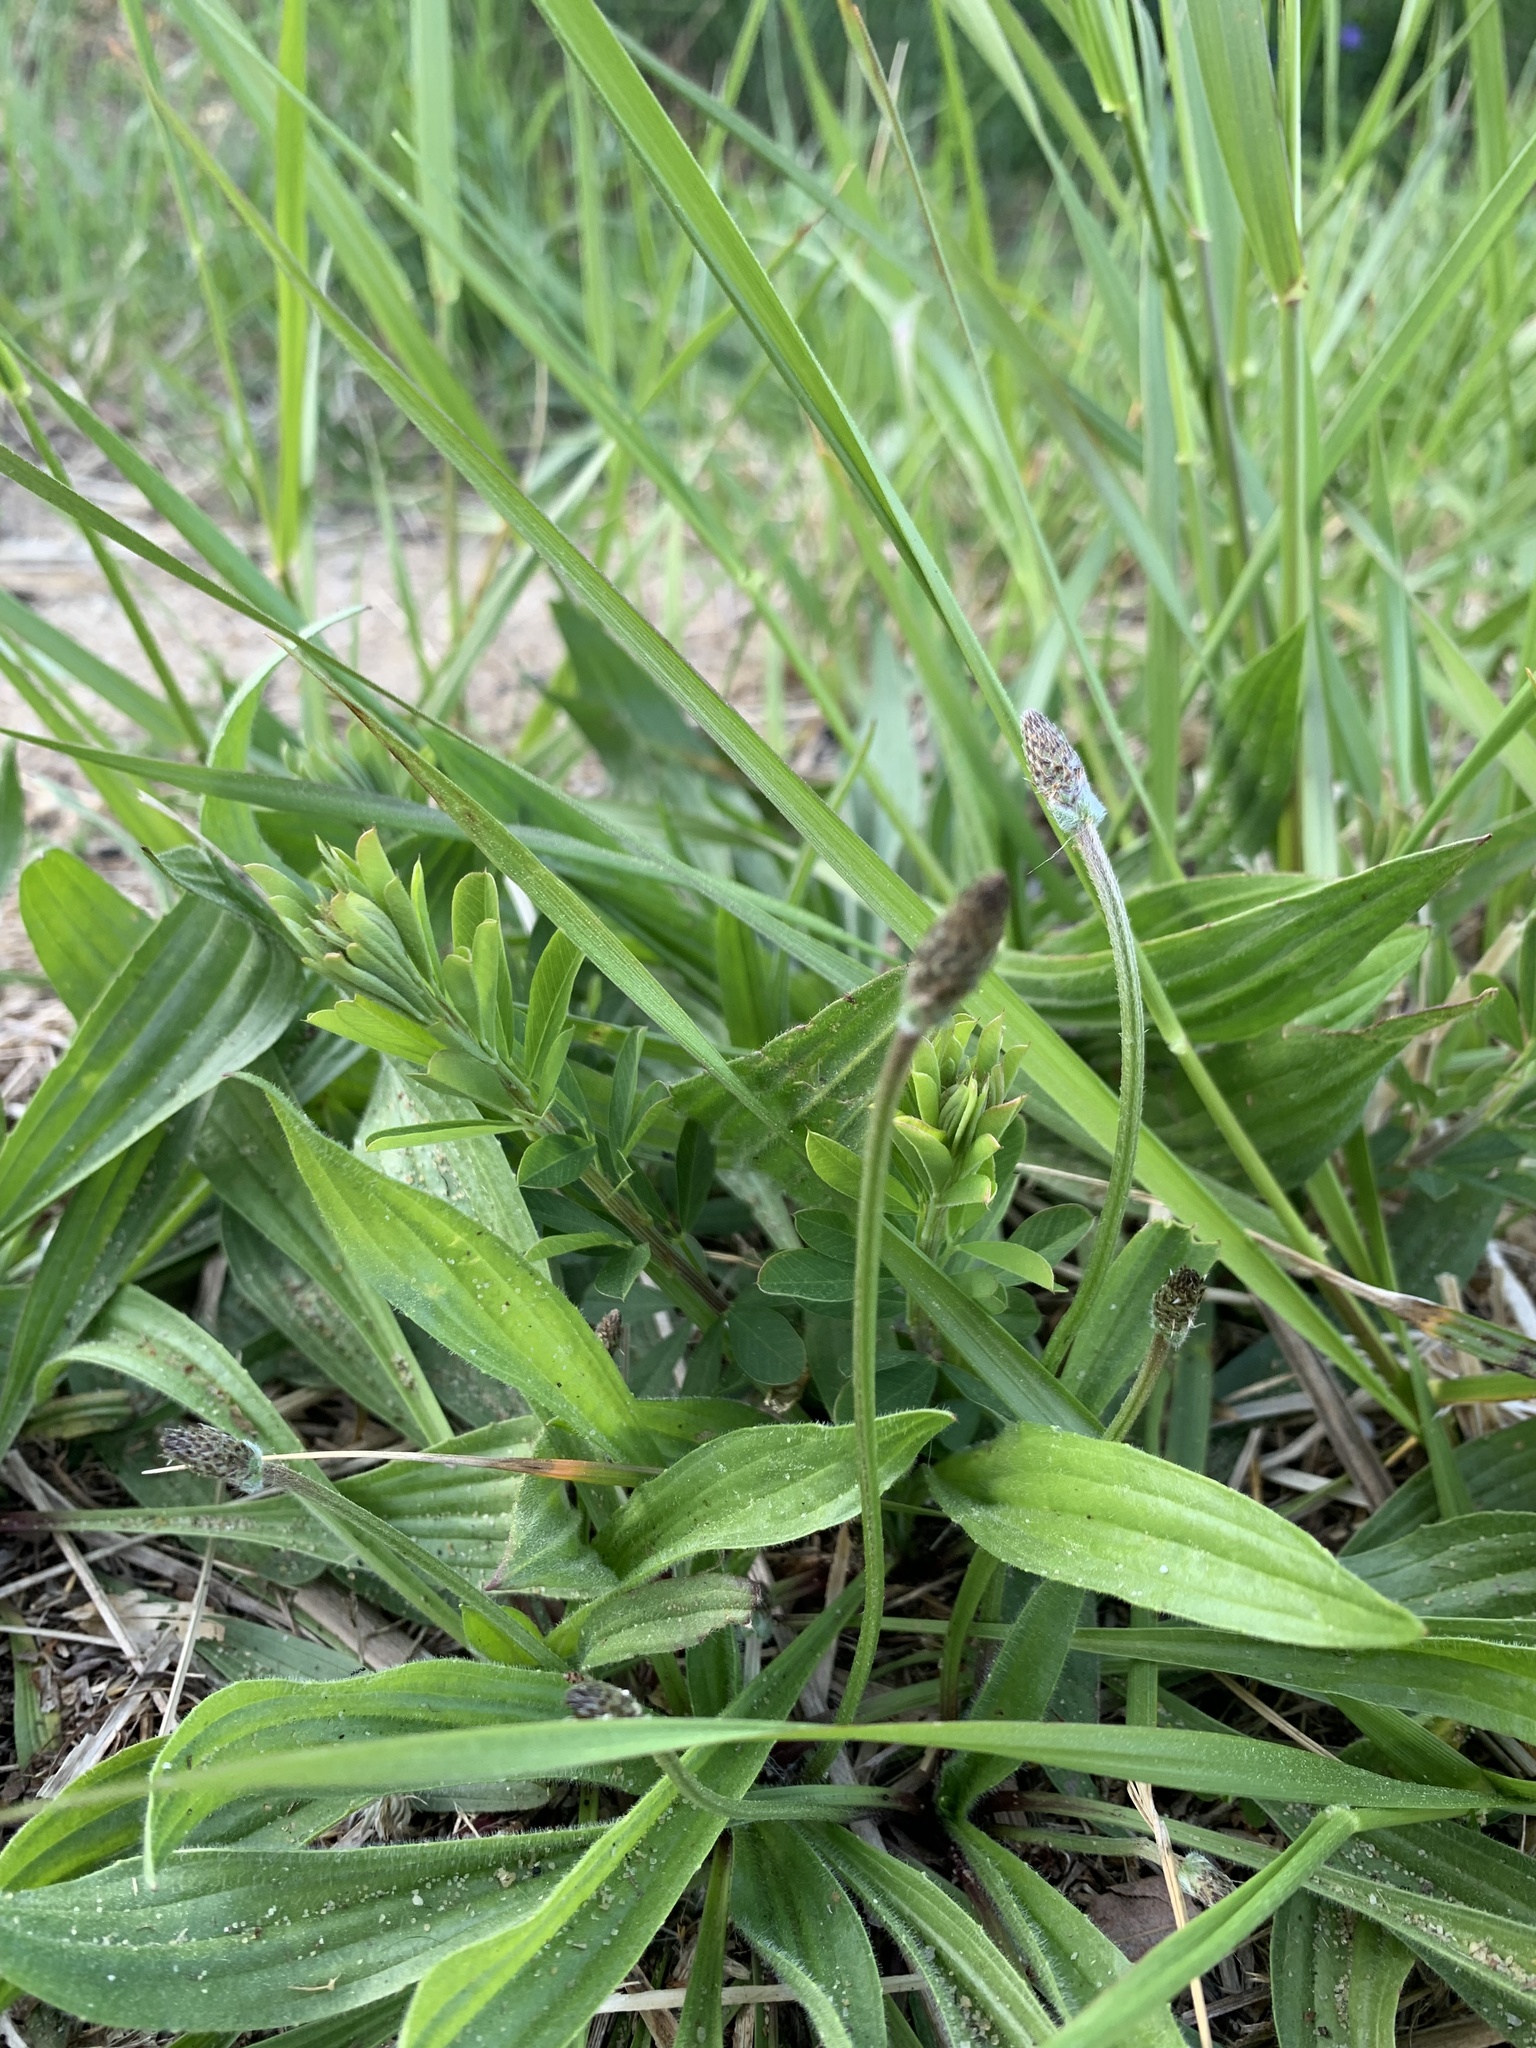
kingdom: Plantae
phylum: Tracheophyta
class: Magnoliopsida
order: Lamiales
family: Plantaginaceae
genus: Plantago
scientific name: Plantago lanceolata
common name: Ribwort plantain
